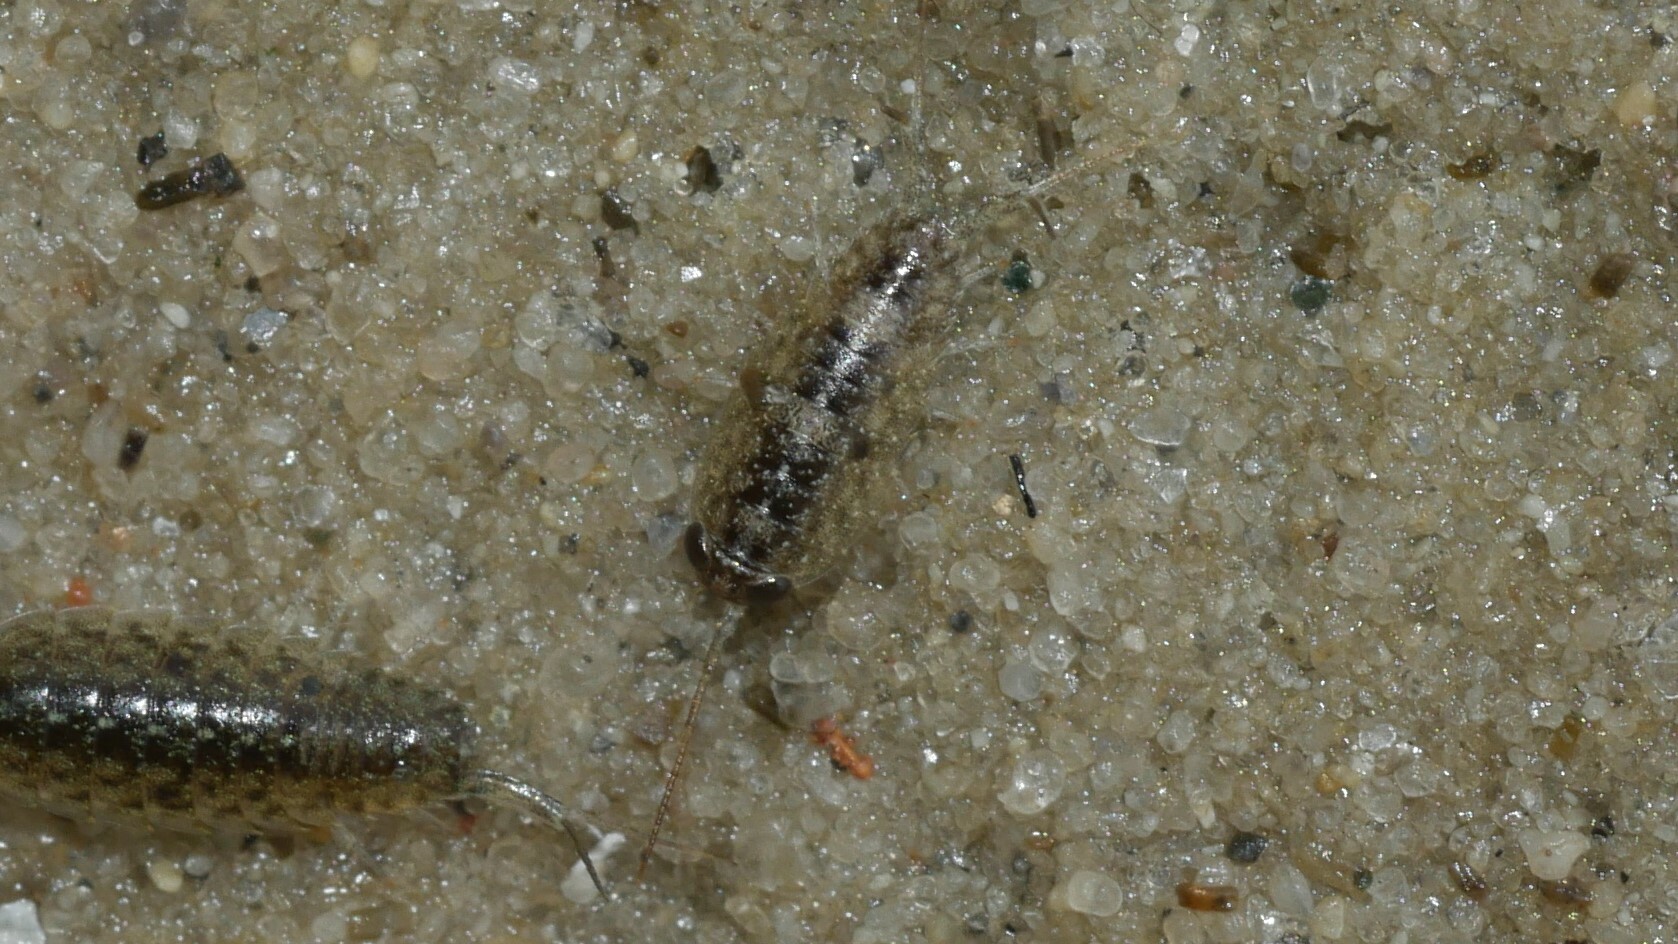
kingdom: Animalia
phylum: Arthropoda
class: Malacostraca
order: Isopoda
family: Ligiidae
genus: Ligia
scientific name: Ligia exotica
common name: Wharf roach
